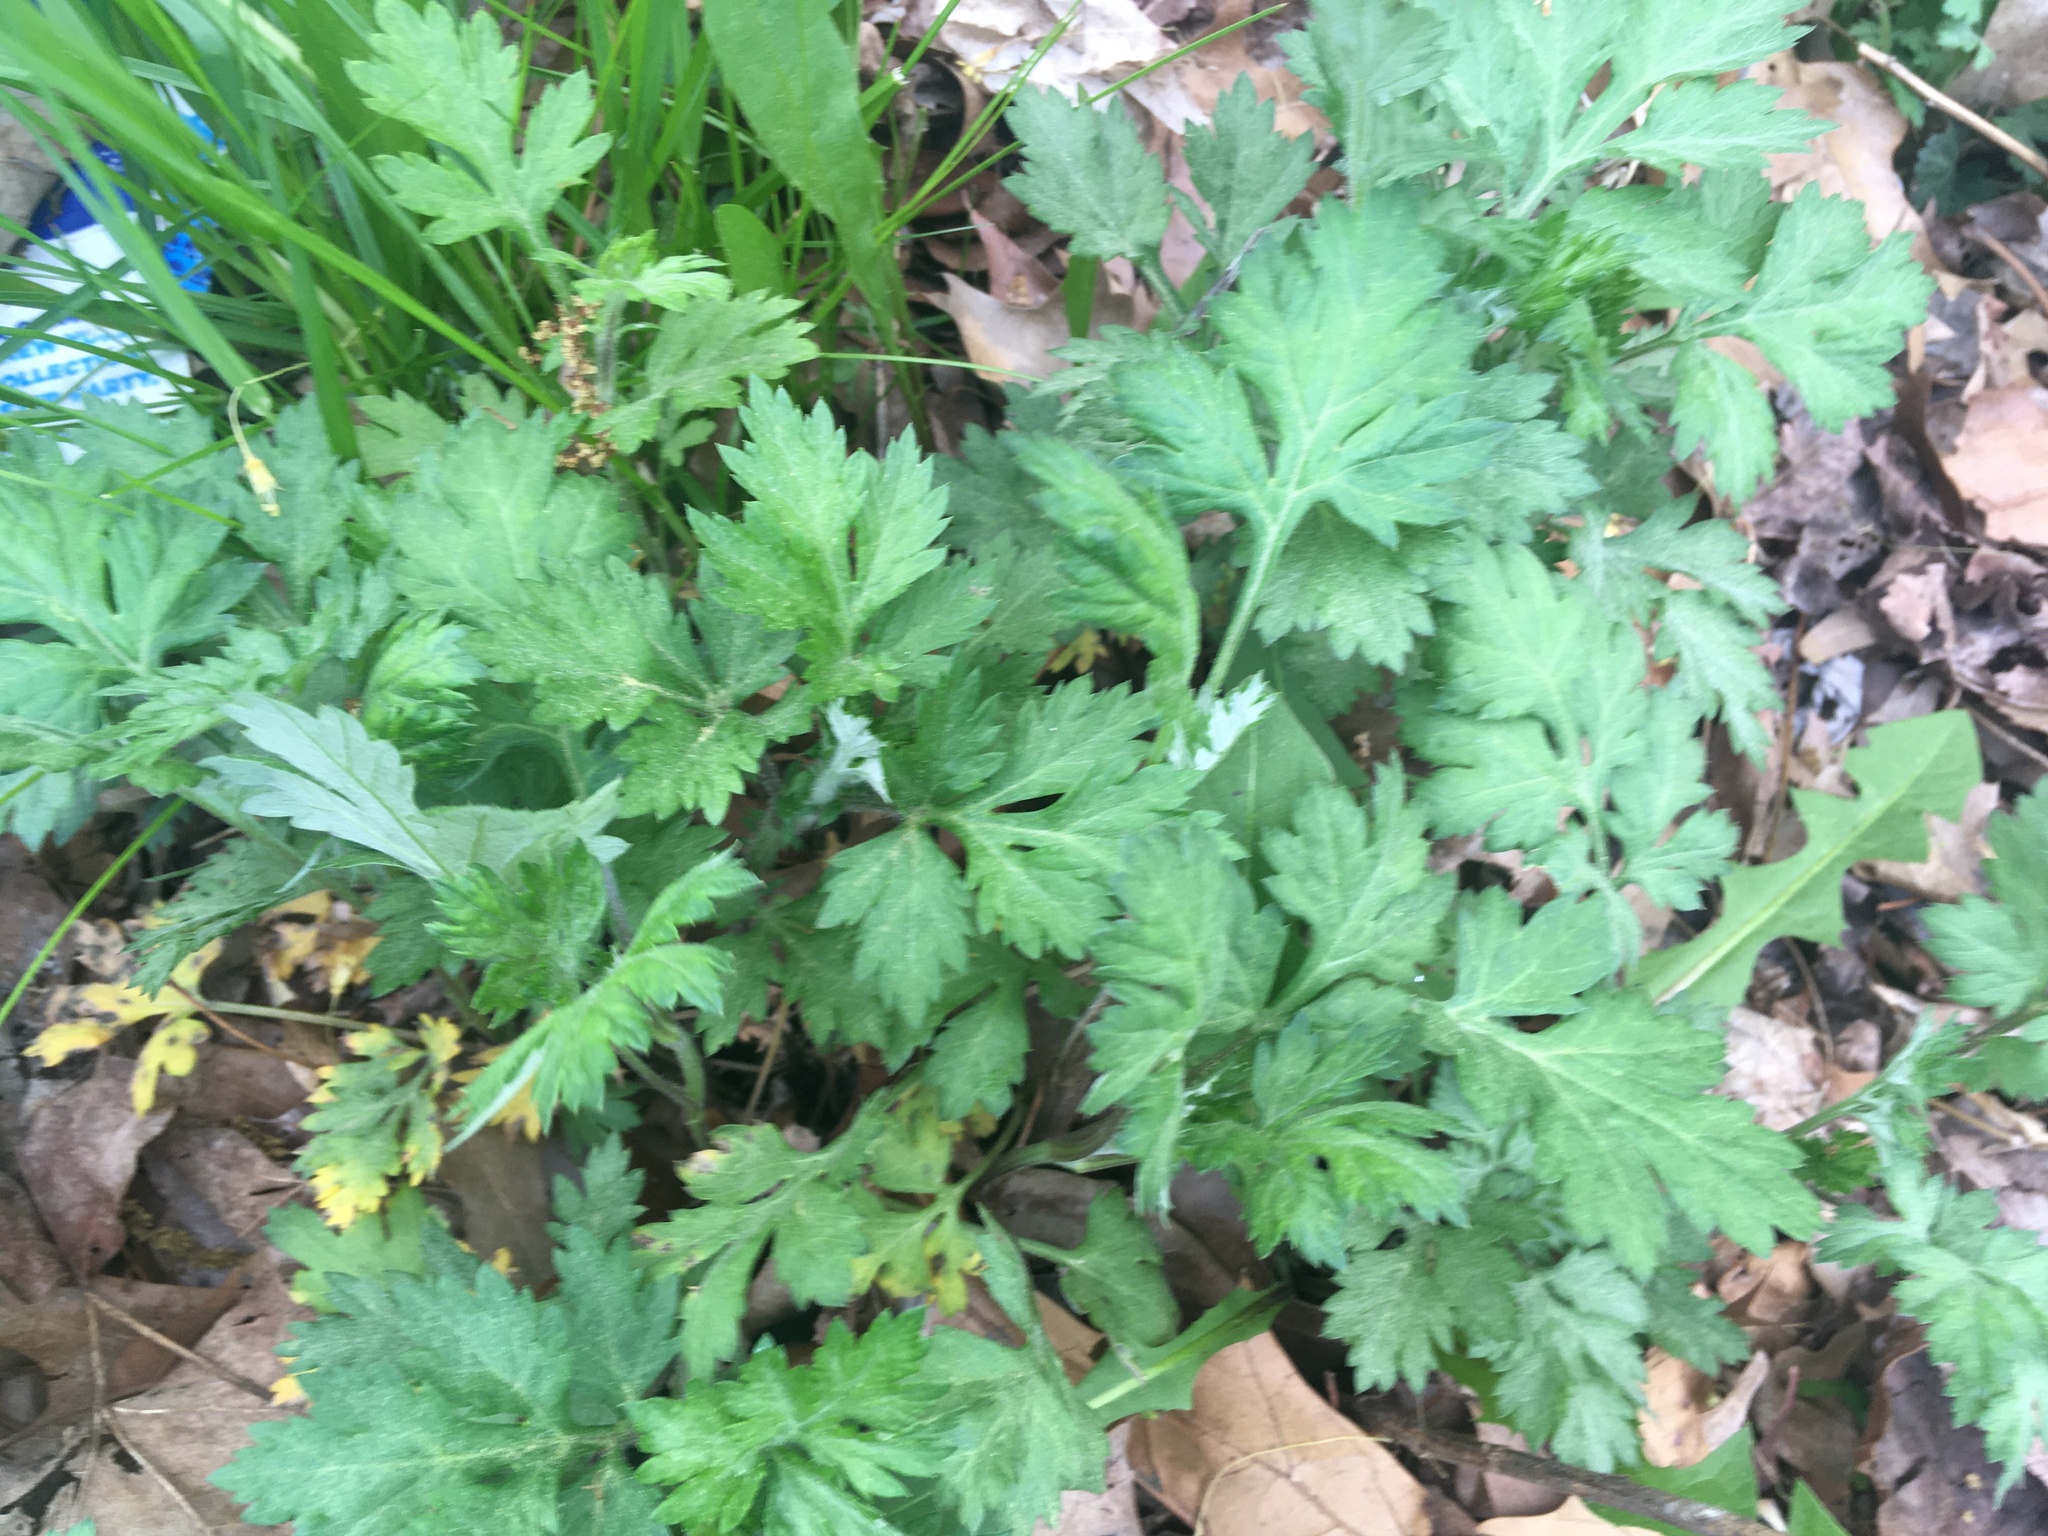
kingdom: Plantae
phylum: Tracheophyta
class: Magnoliopsida
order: Asterales
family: Asteraceae
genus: Artemisia
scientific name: Artemisia vulgaris
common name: Mugwort
